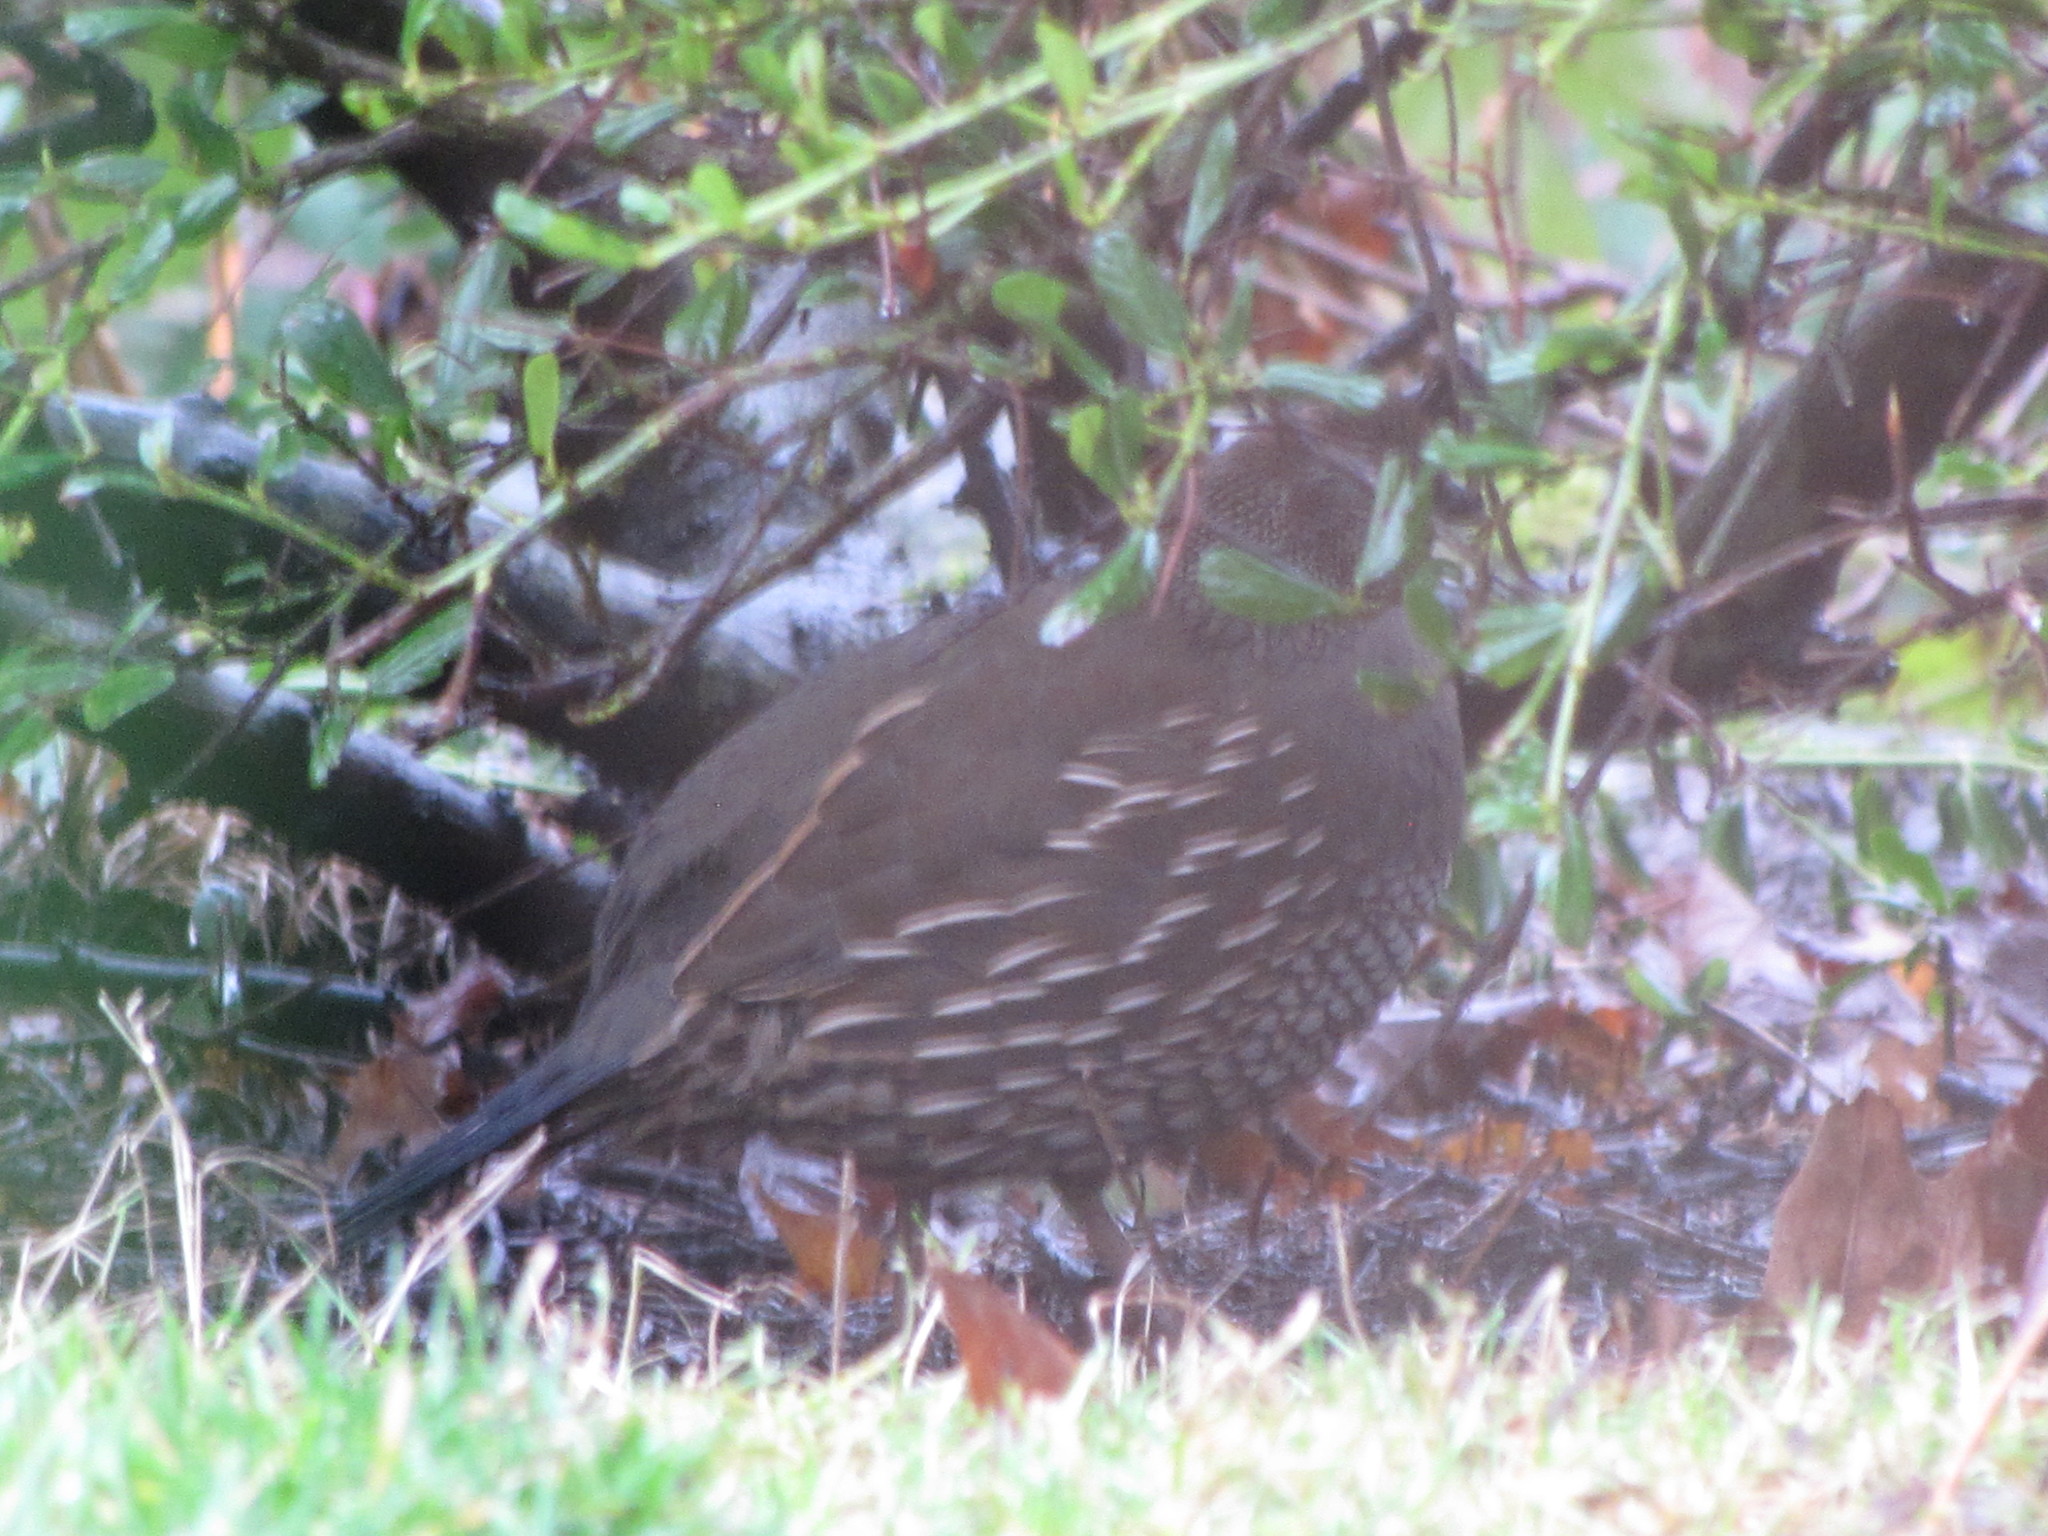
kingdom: Animalia
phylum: Chordata
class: Aves
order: Galliformes
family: Odontophoridae
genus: Callipepla
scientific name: Callipepla californica
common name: California quail
